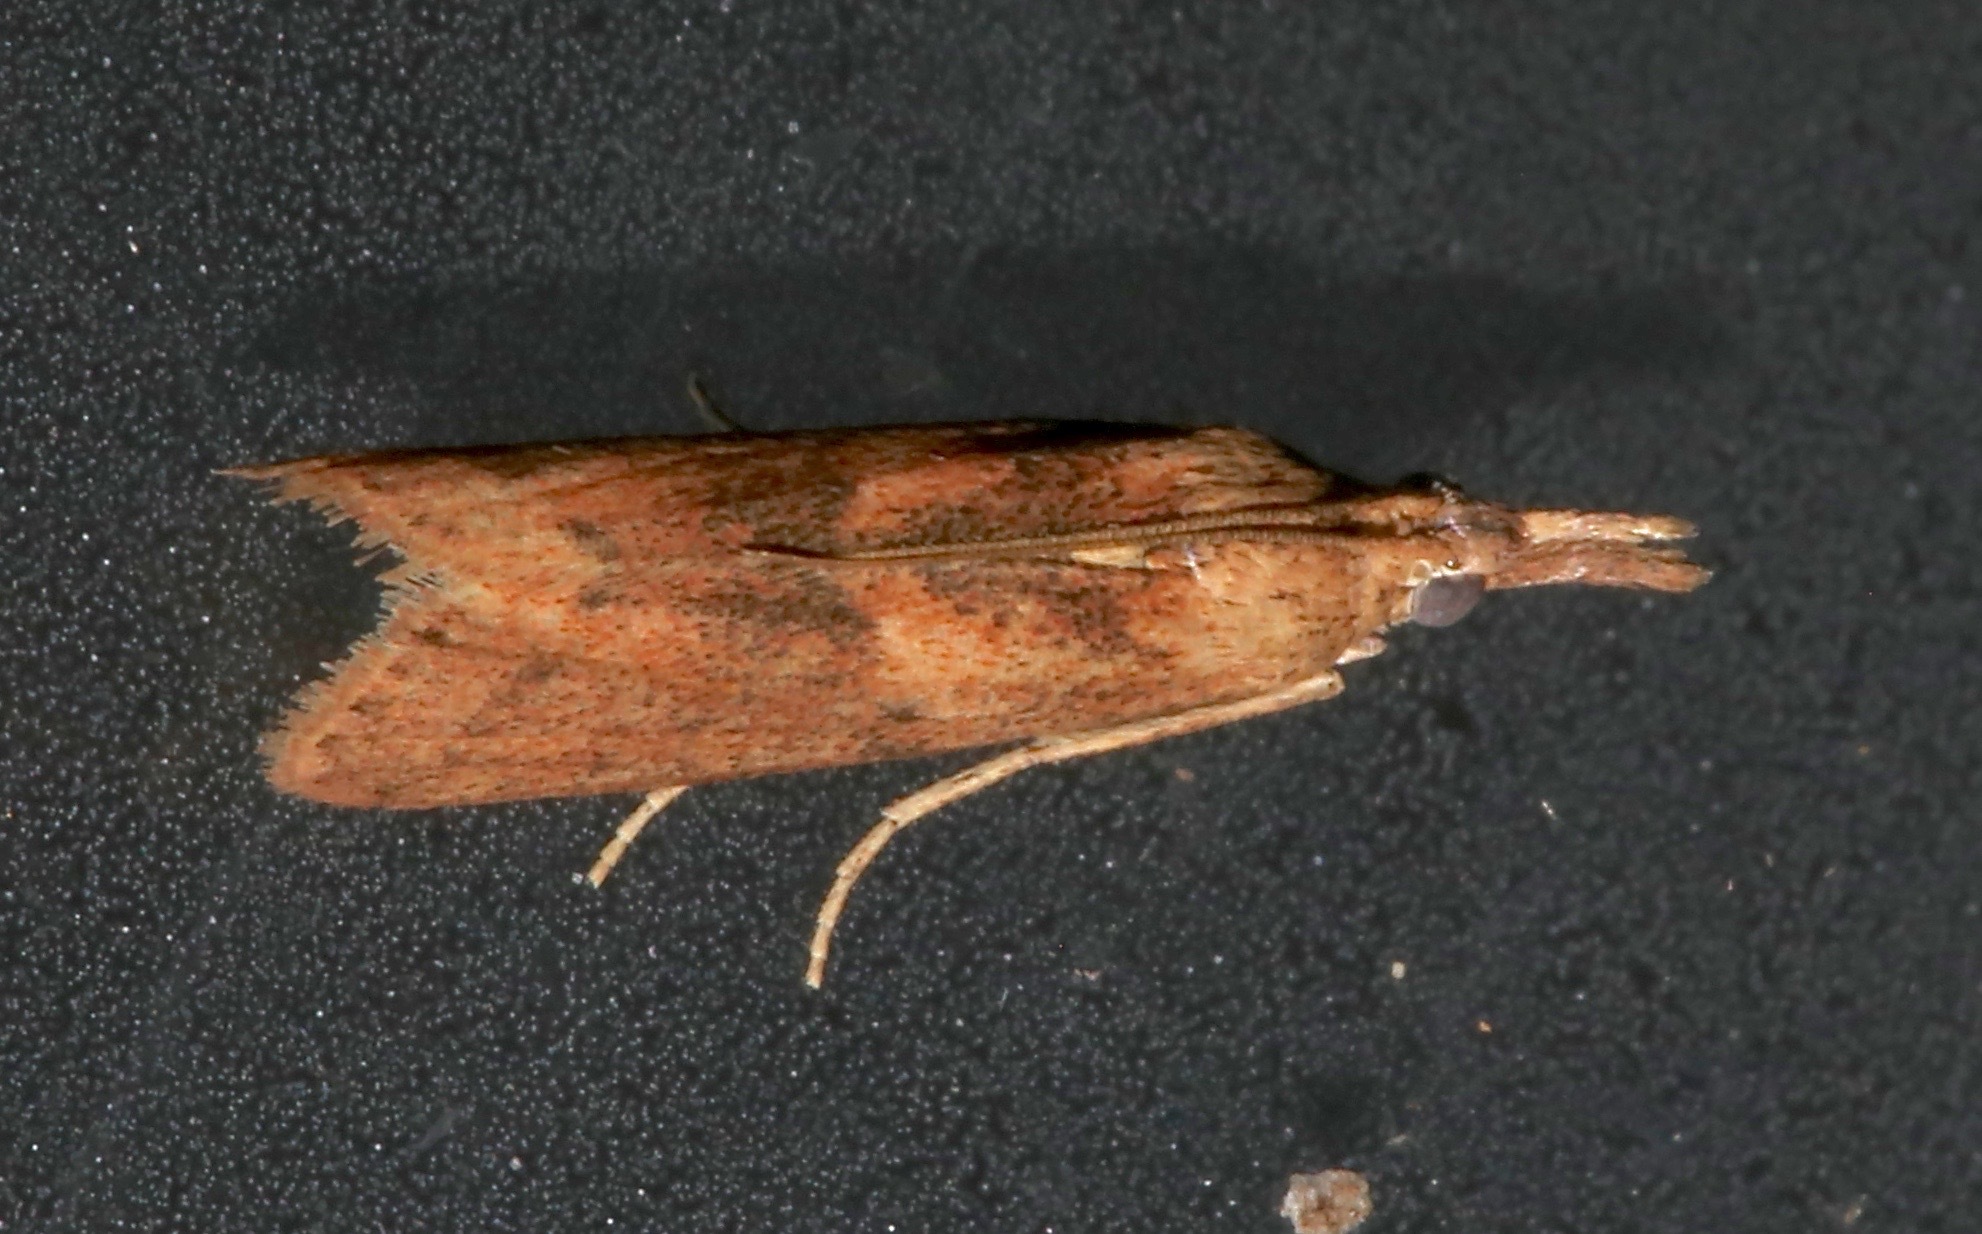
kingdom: Animalia
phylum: Arthropoda
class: Insecta
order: Lepidoptera
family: Pyralidae
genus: Macrorrhinia
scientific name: Macrorrhinia endonephele
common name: Alligator weed stemborer moth
